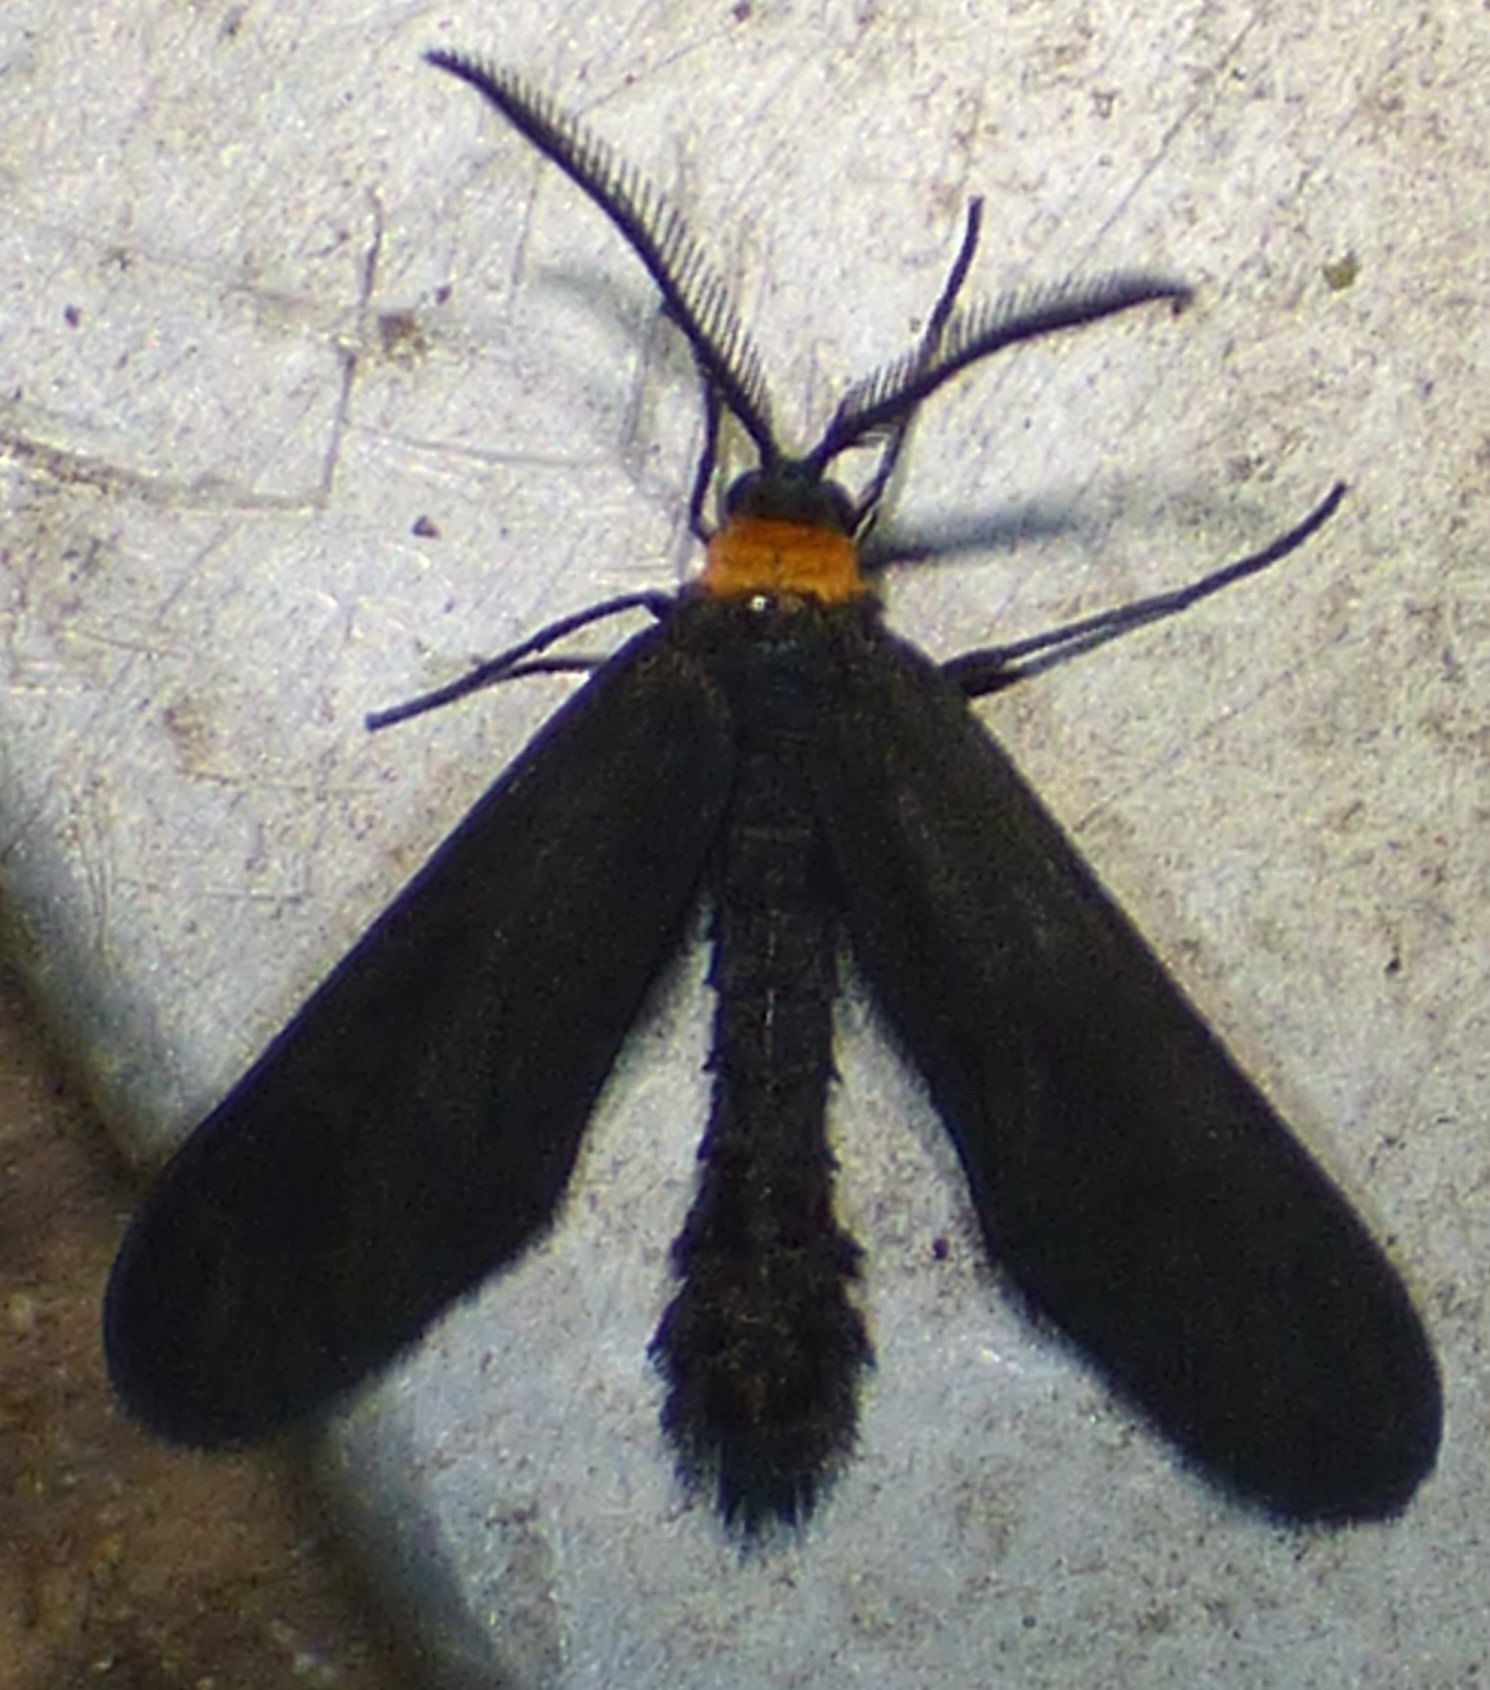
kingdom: Animalia
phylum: Arthropoda
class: Insecta
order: Lepidoptera
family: Zygaenidae
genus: Harrisina
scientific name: Harrisina americana
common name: Grapeleaf skeletonizer moth
